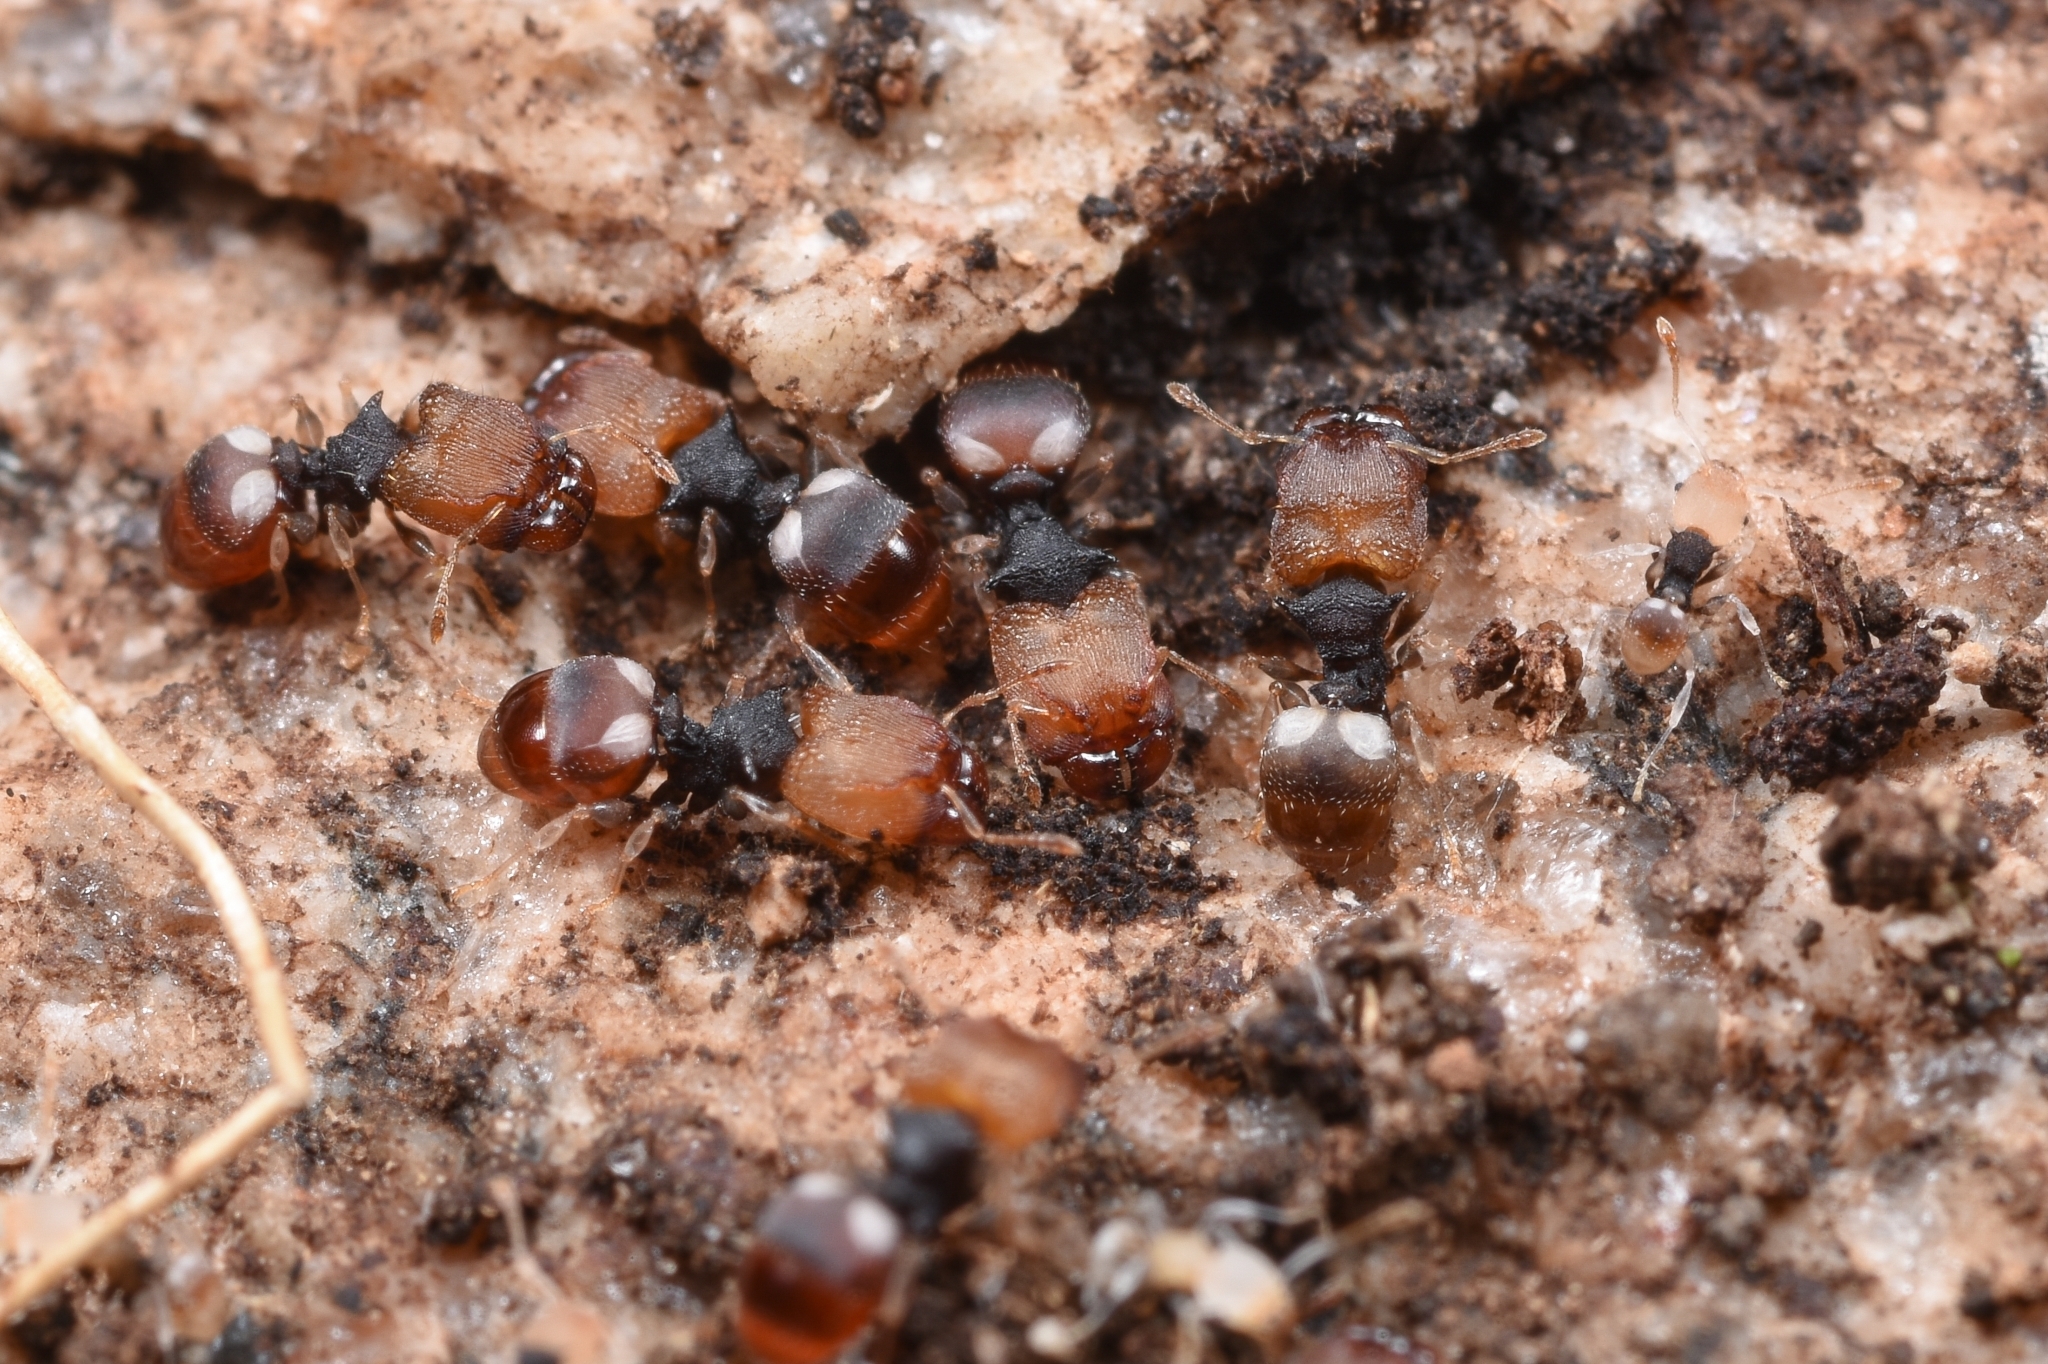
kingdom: Animalia
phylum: Arthropoda
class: Insecta
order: Hymenoptera
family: Formicidae
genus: Pheidole
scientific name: Pheidole
